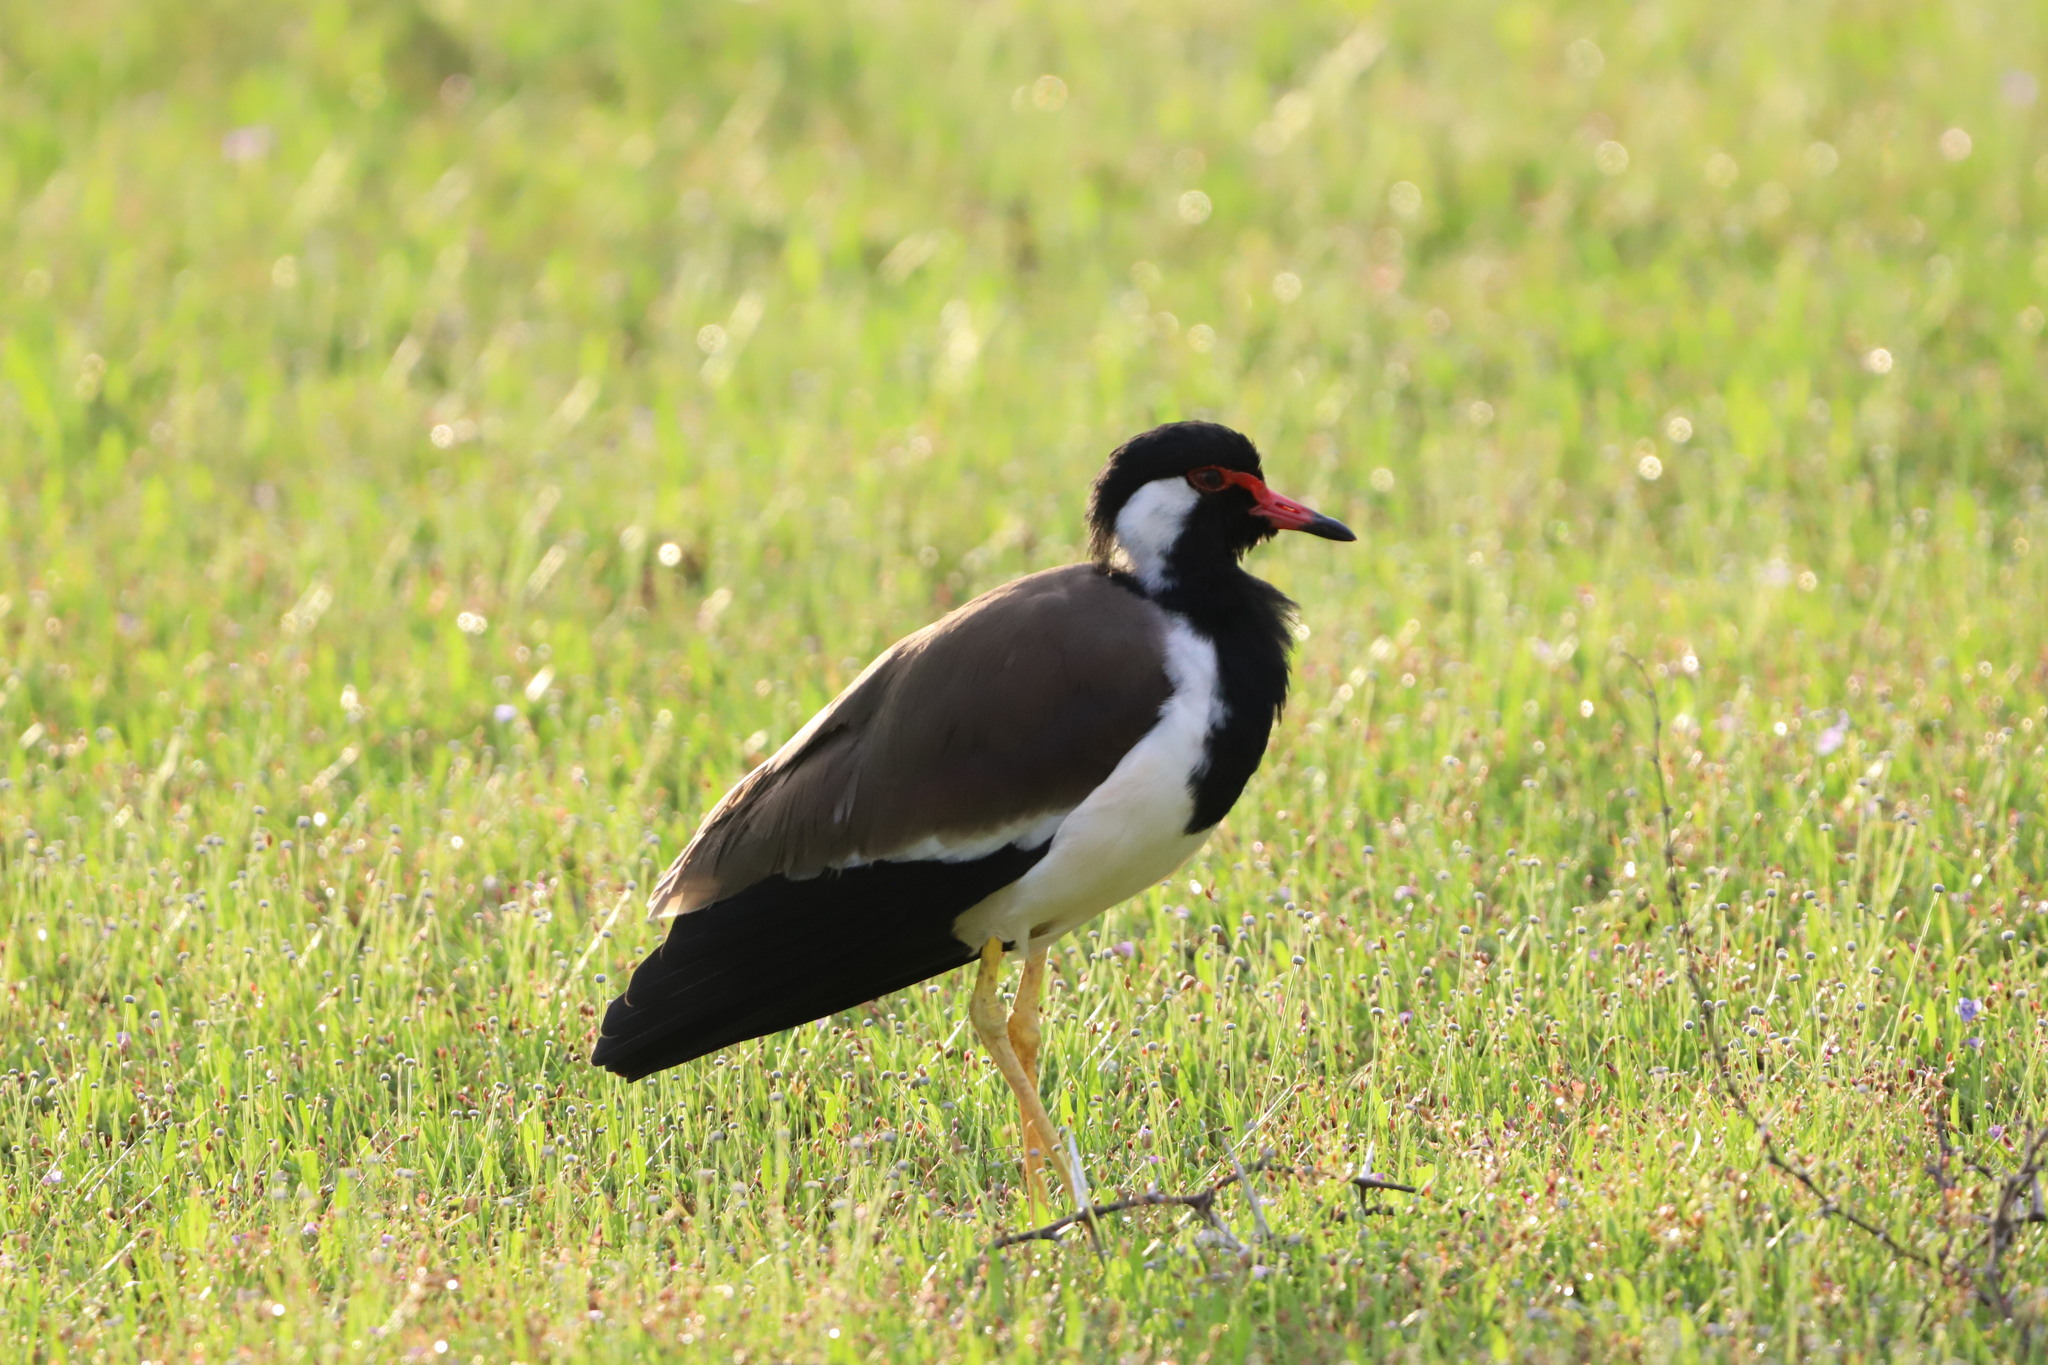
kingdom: Animalia
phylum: Chordata
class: Aves
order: Charadriiformes
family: Charadriidae
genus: Vanellus
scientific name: Vanellus indicus
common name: Red-wattled lapwing
